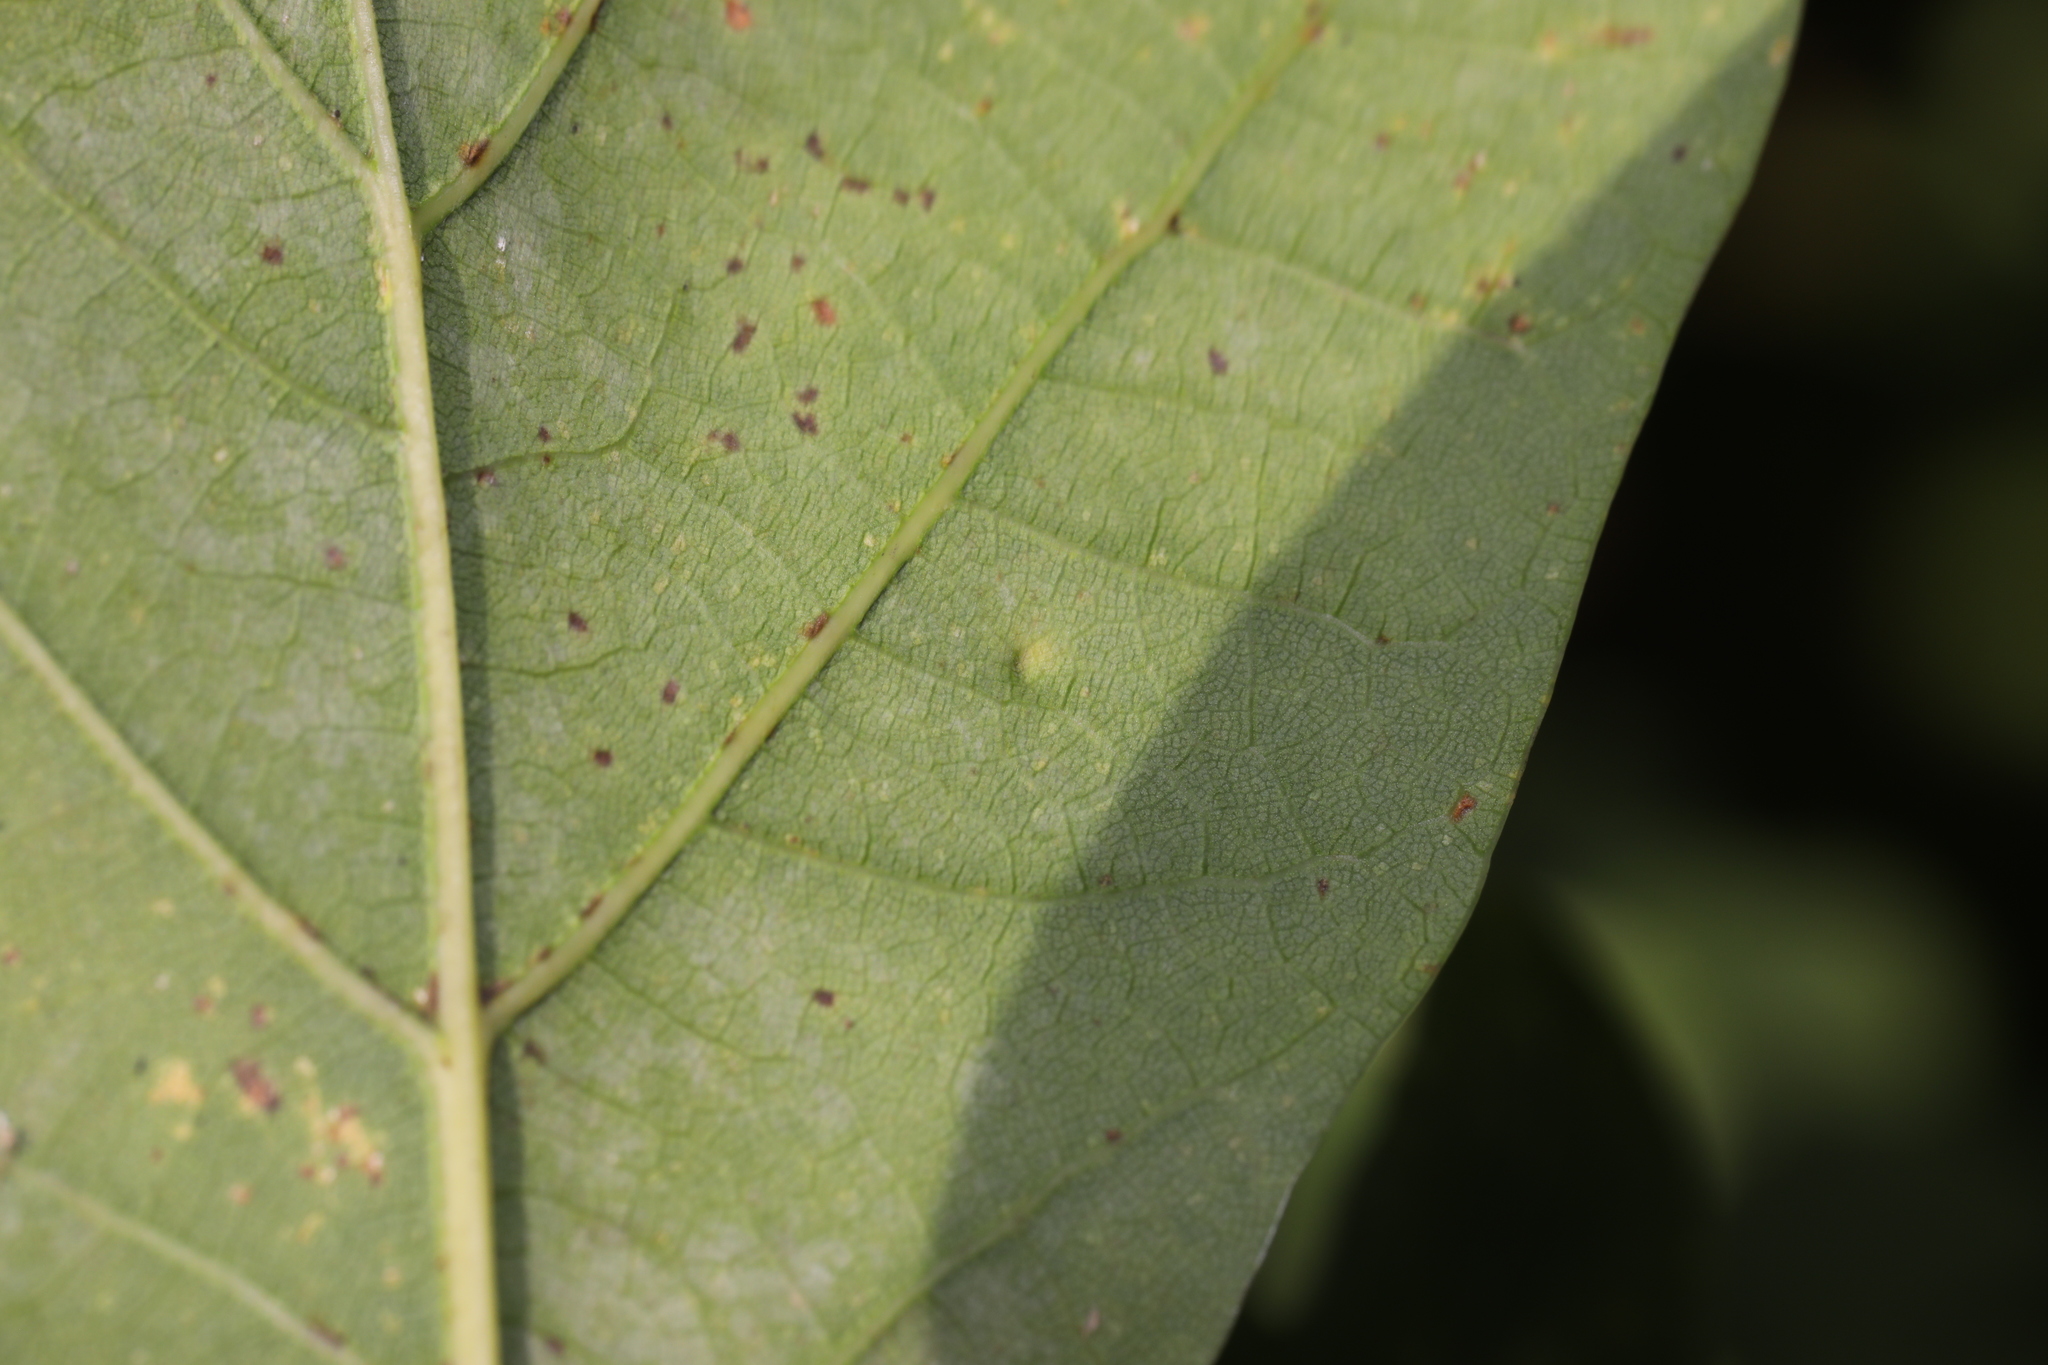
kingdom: Animalia
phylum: Arthropoda
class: Insecta
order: Hemiptera
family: Triozidae
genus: Trioza
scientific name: Trioza remota
